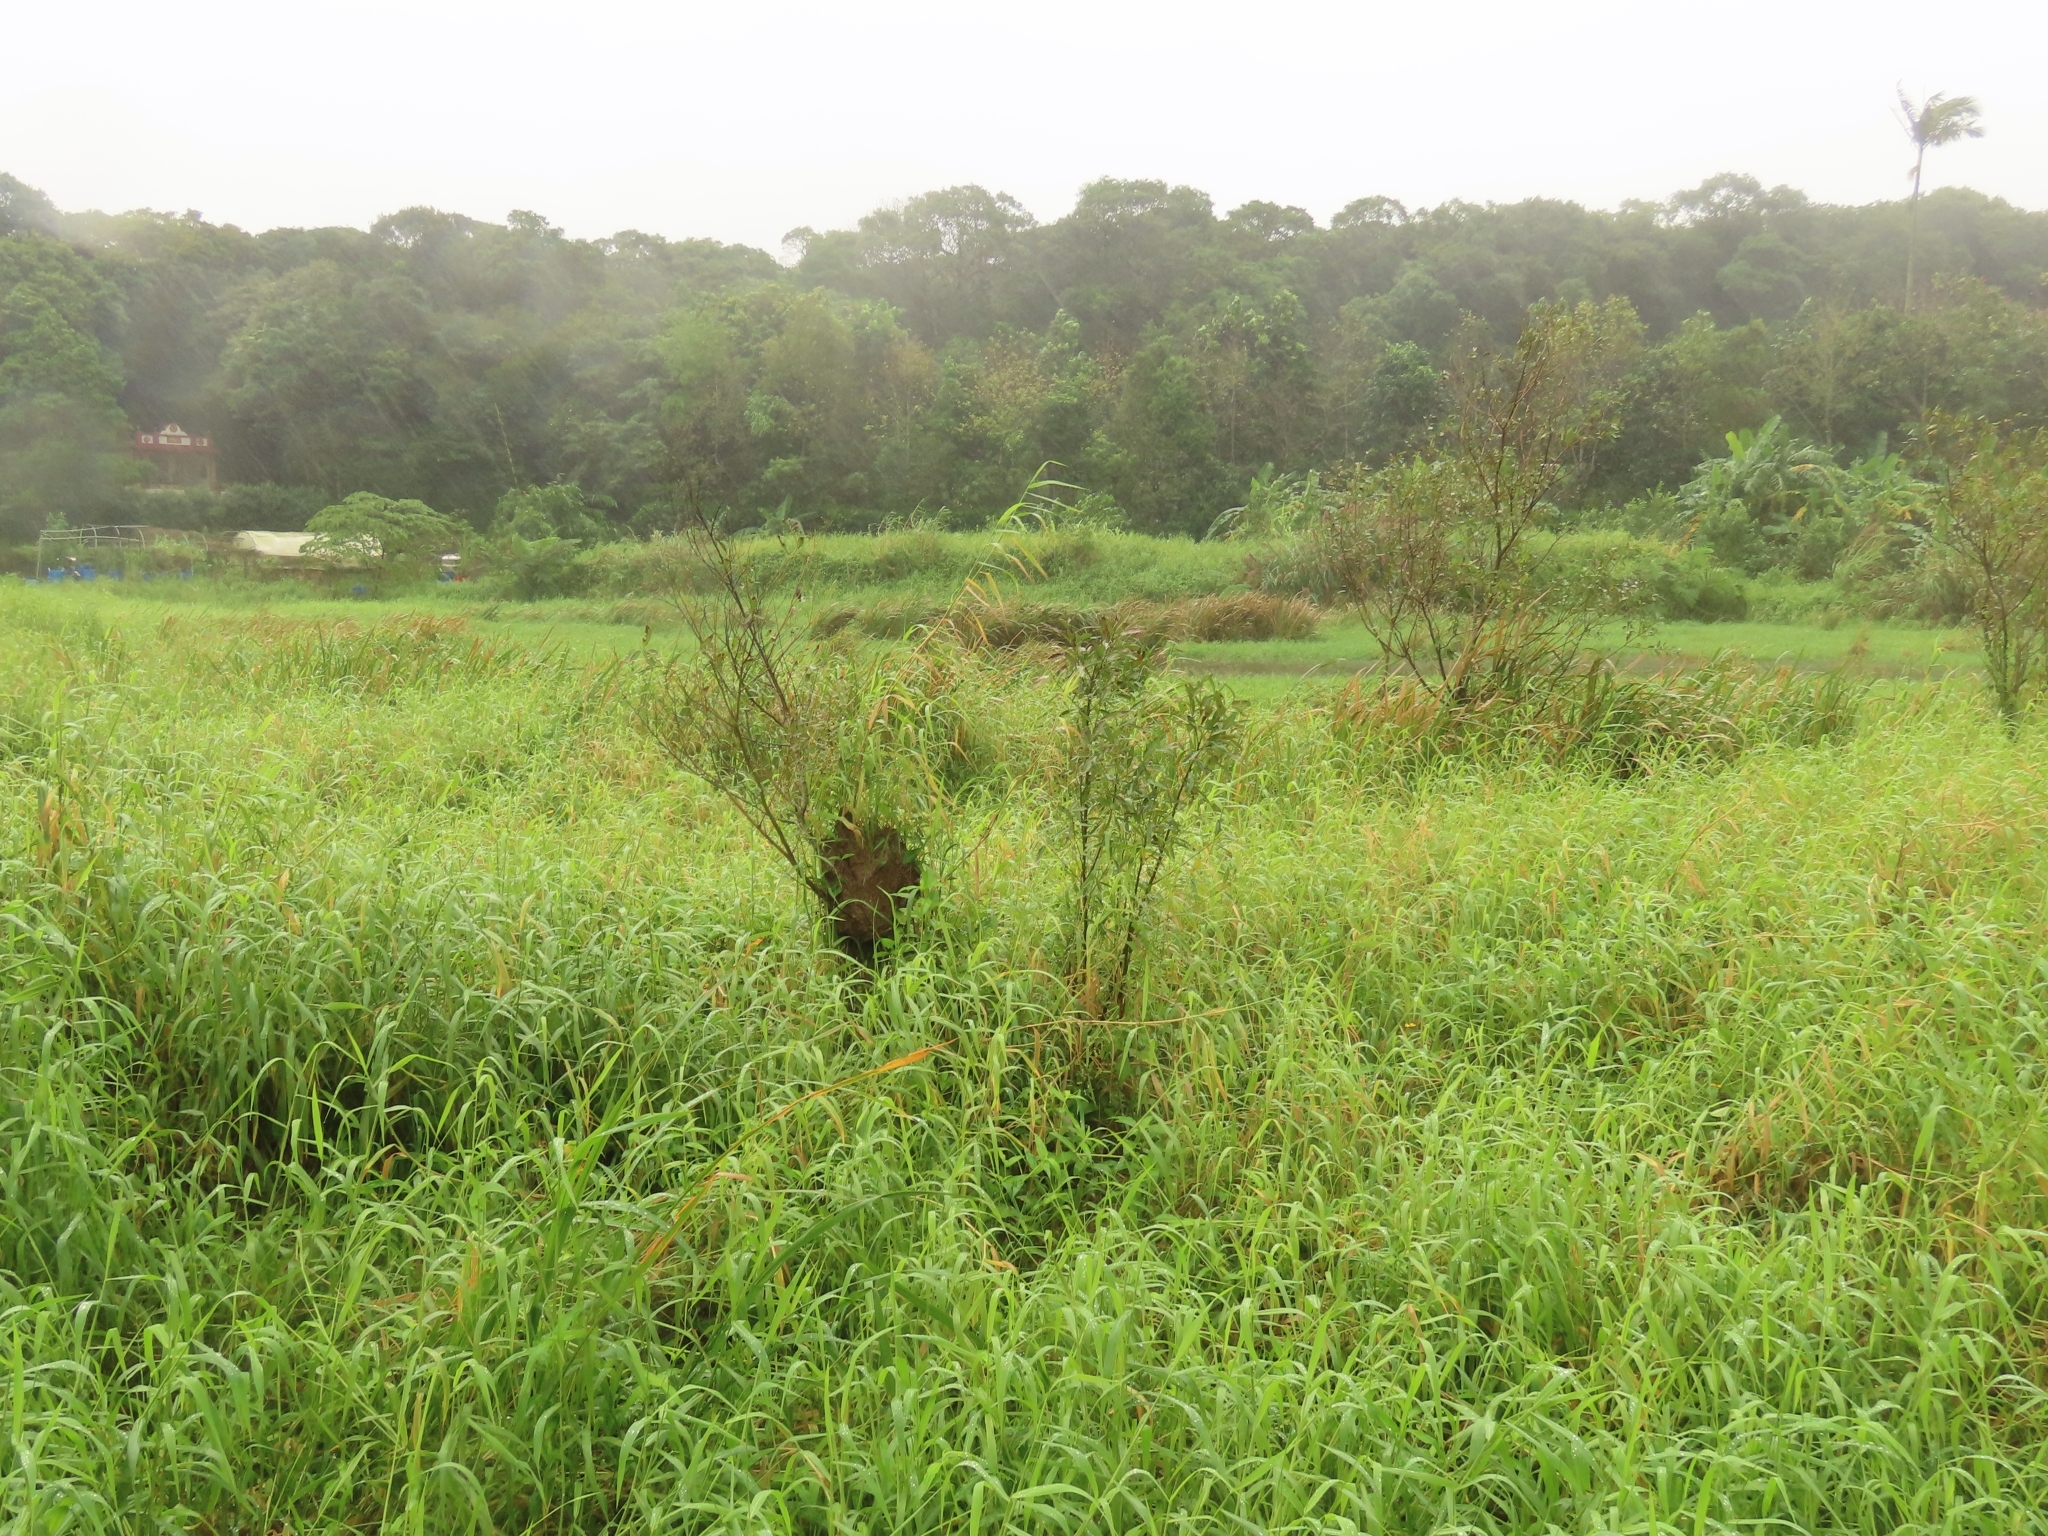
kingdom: Plantae
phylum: Tracheophyta
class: Magnoliopsida
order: Malpighiales
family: Salicaceae
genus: Salix
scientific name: Salix mesnyi
